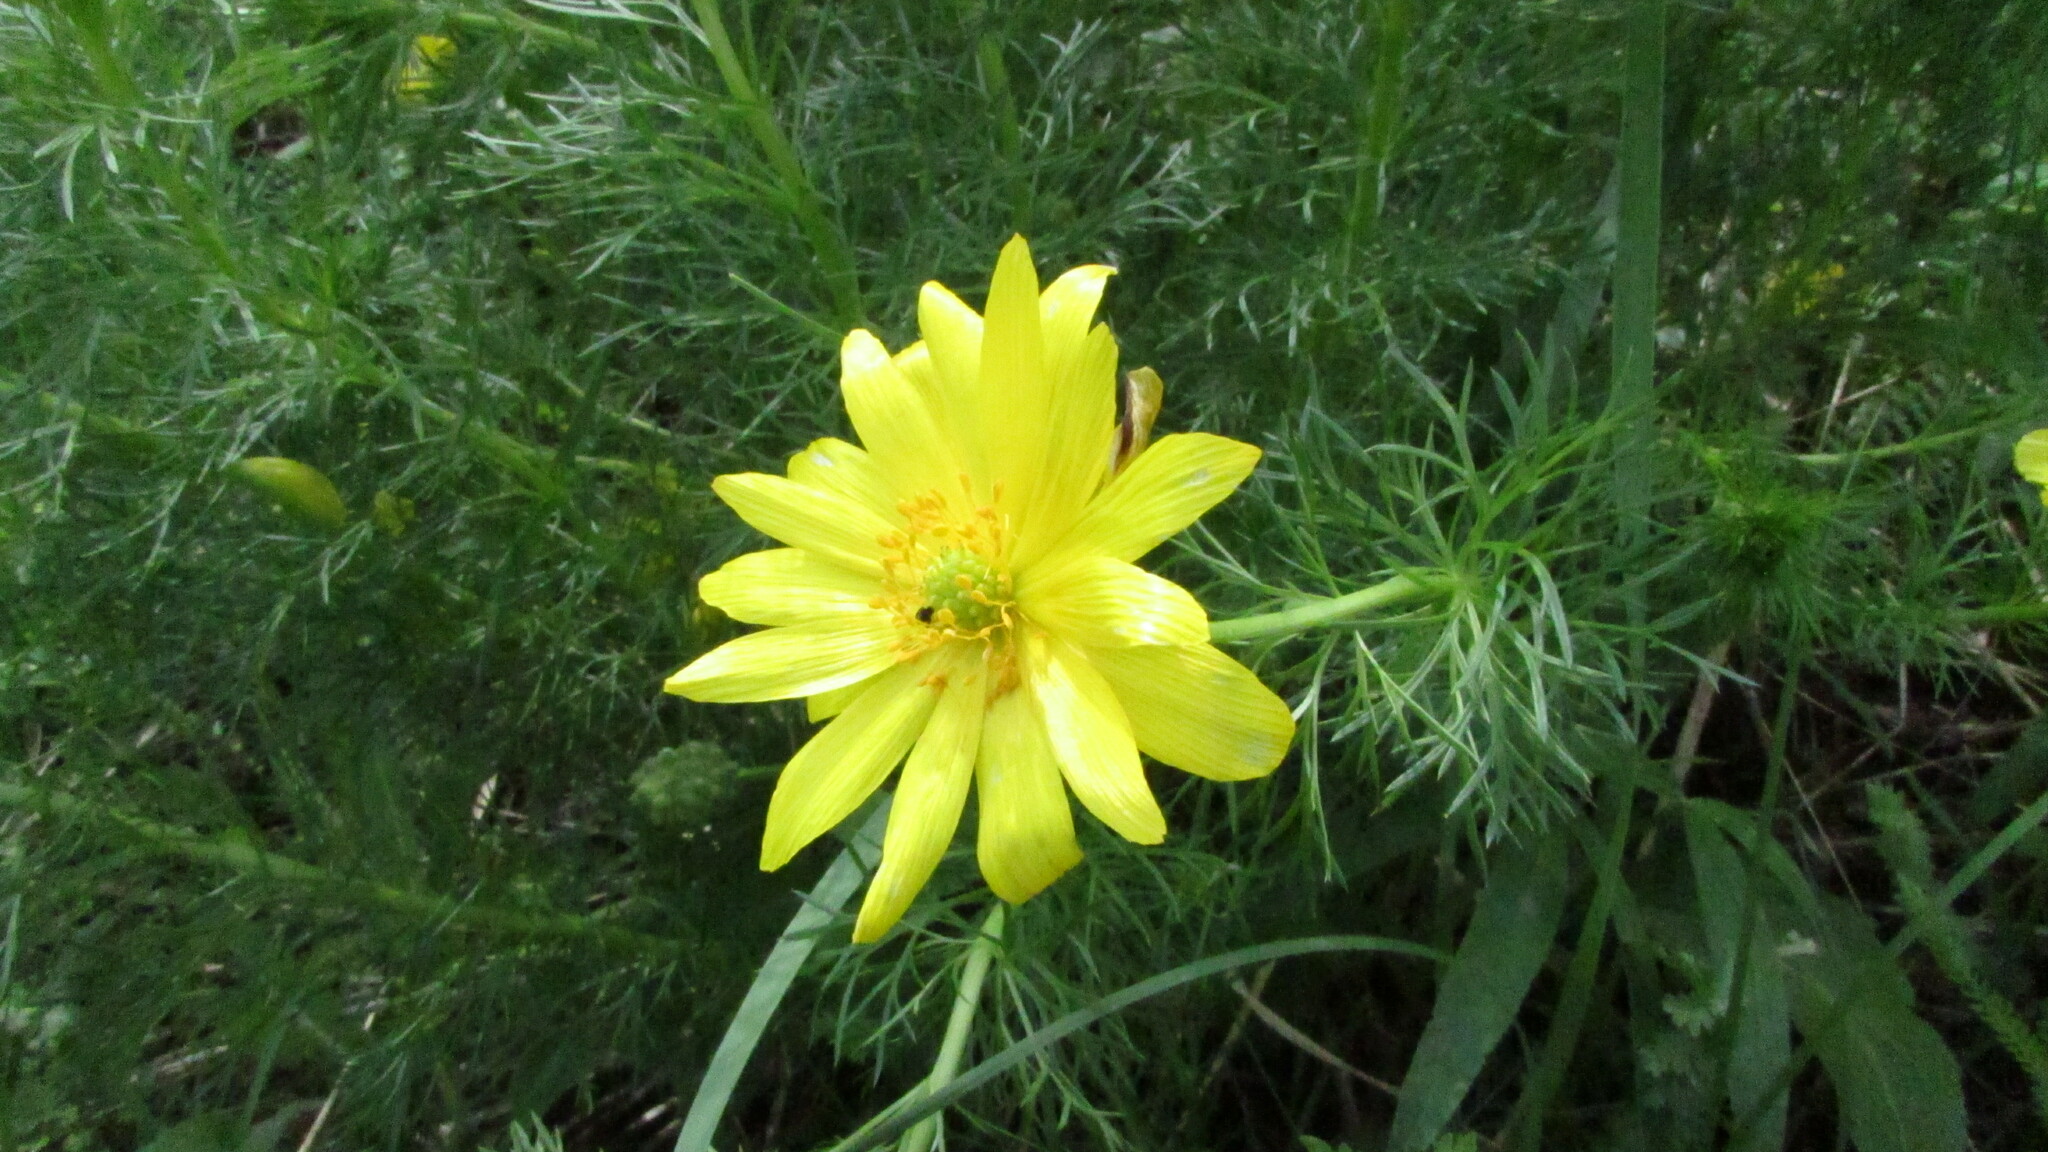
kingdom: Plantae
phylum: Tracheophyta
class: Magnoliopsida
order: Ranunculales
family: Ranunculaceae
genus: Adonis
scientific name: Adonis vernalis
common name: Yellow pheasants-eye
